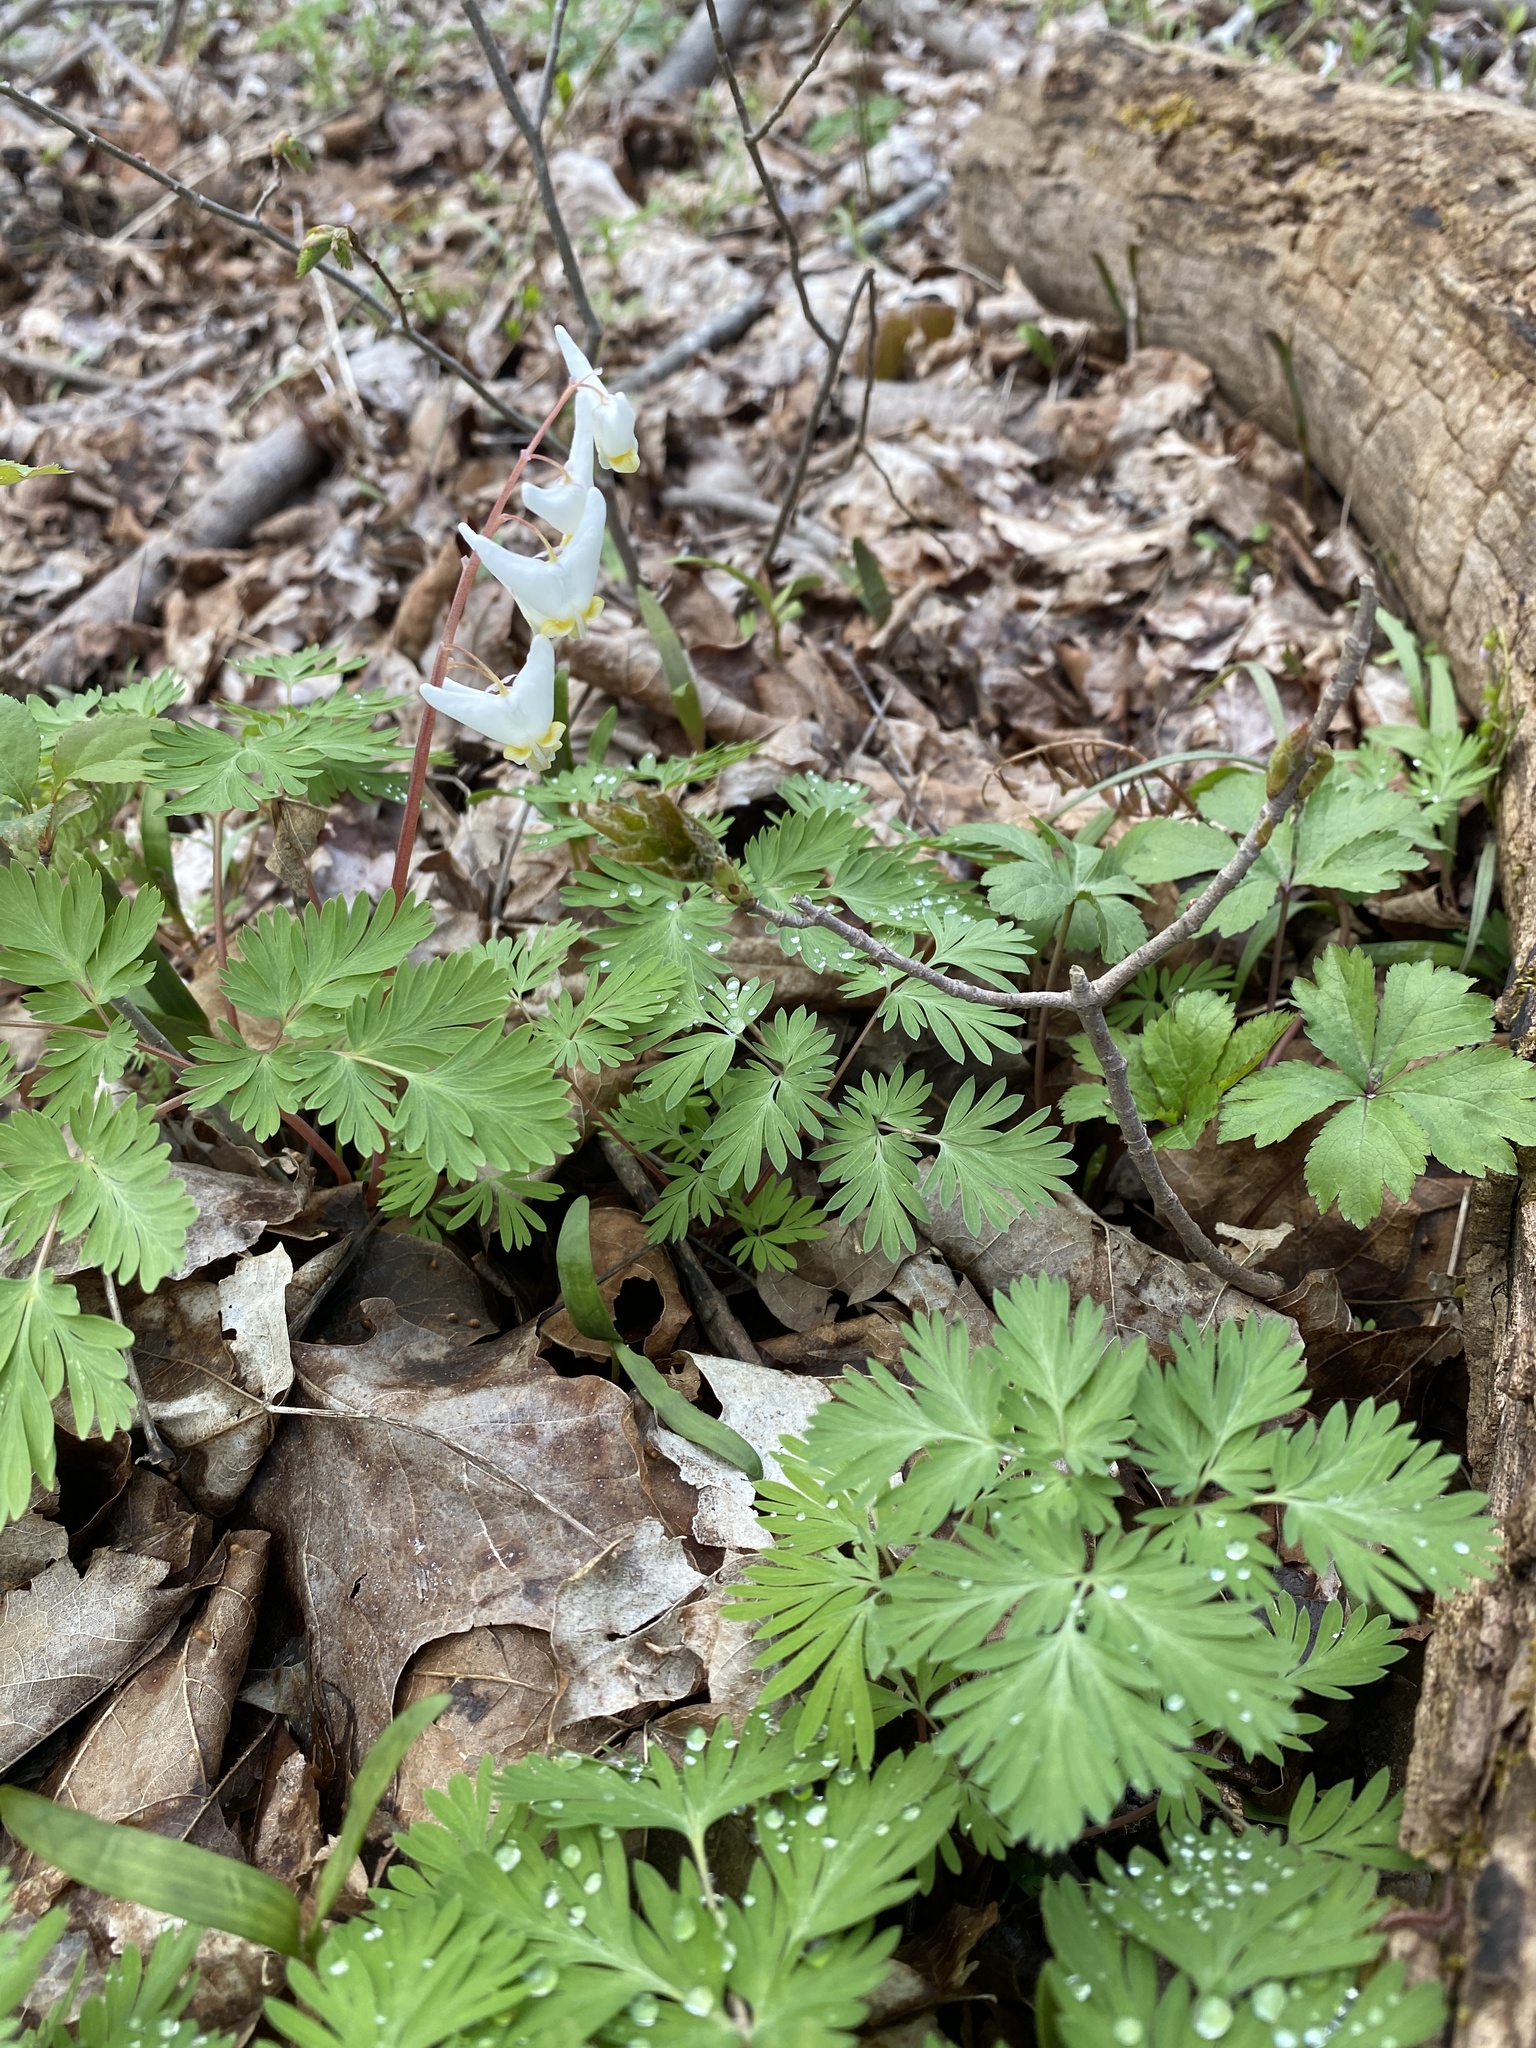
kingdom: Plantae
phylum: Tracheophyta
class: Magnoliopsida
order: Ranunculales
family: Papaveraceae
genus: Dicentra
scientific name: Dicentra cucullaria
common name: Dutchman's breeches
